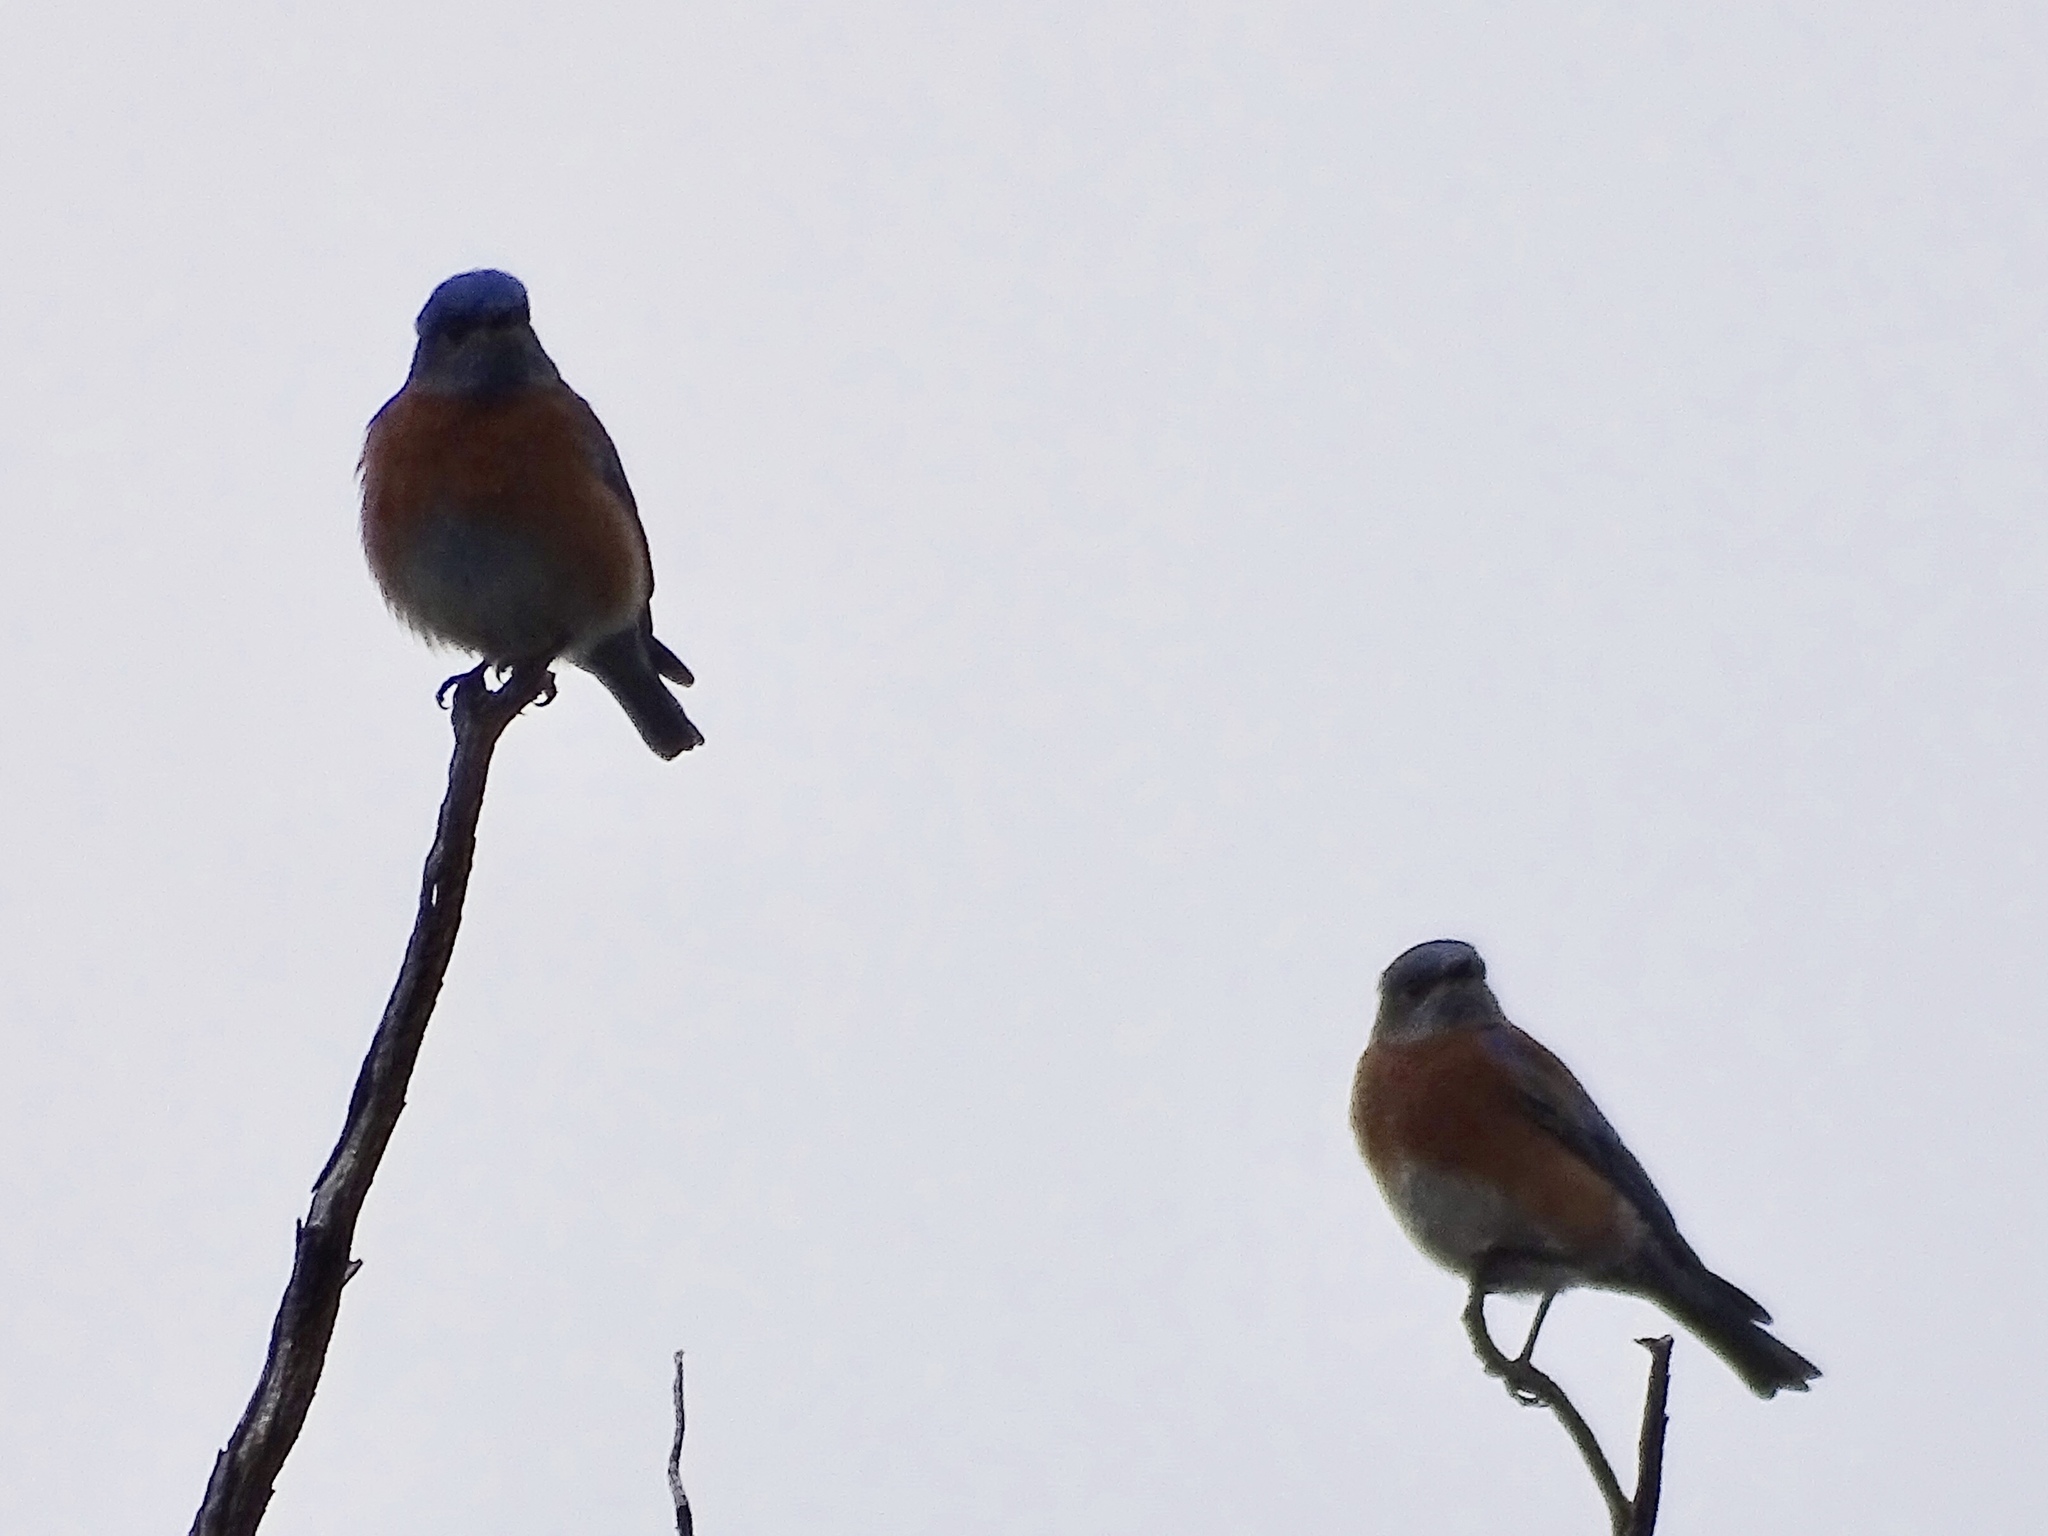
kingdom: Animalia
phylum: Chordata
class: Aves
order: Passeriformes
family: Turdidae
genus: Sialia
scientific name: Sialia mexicana
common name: Western bluebird
